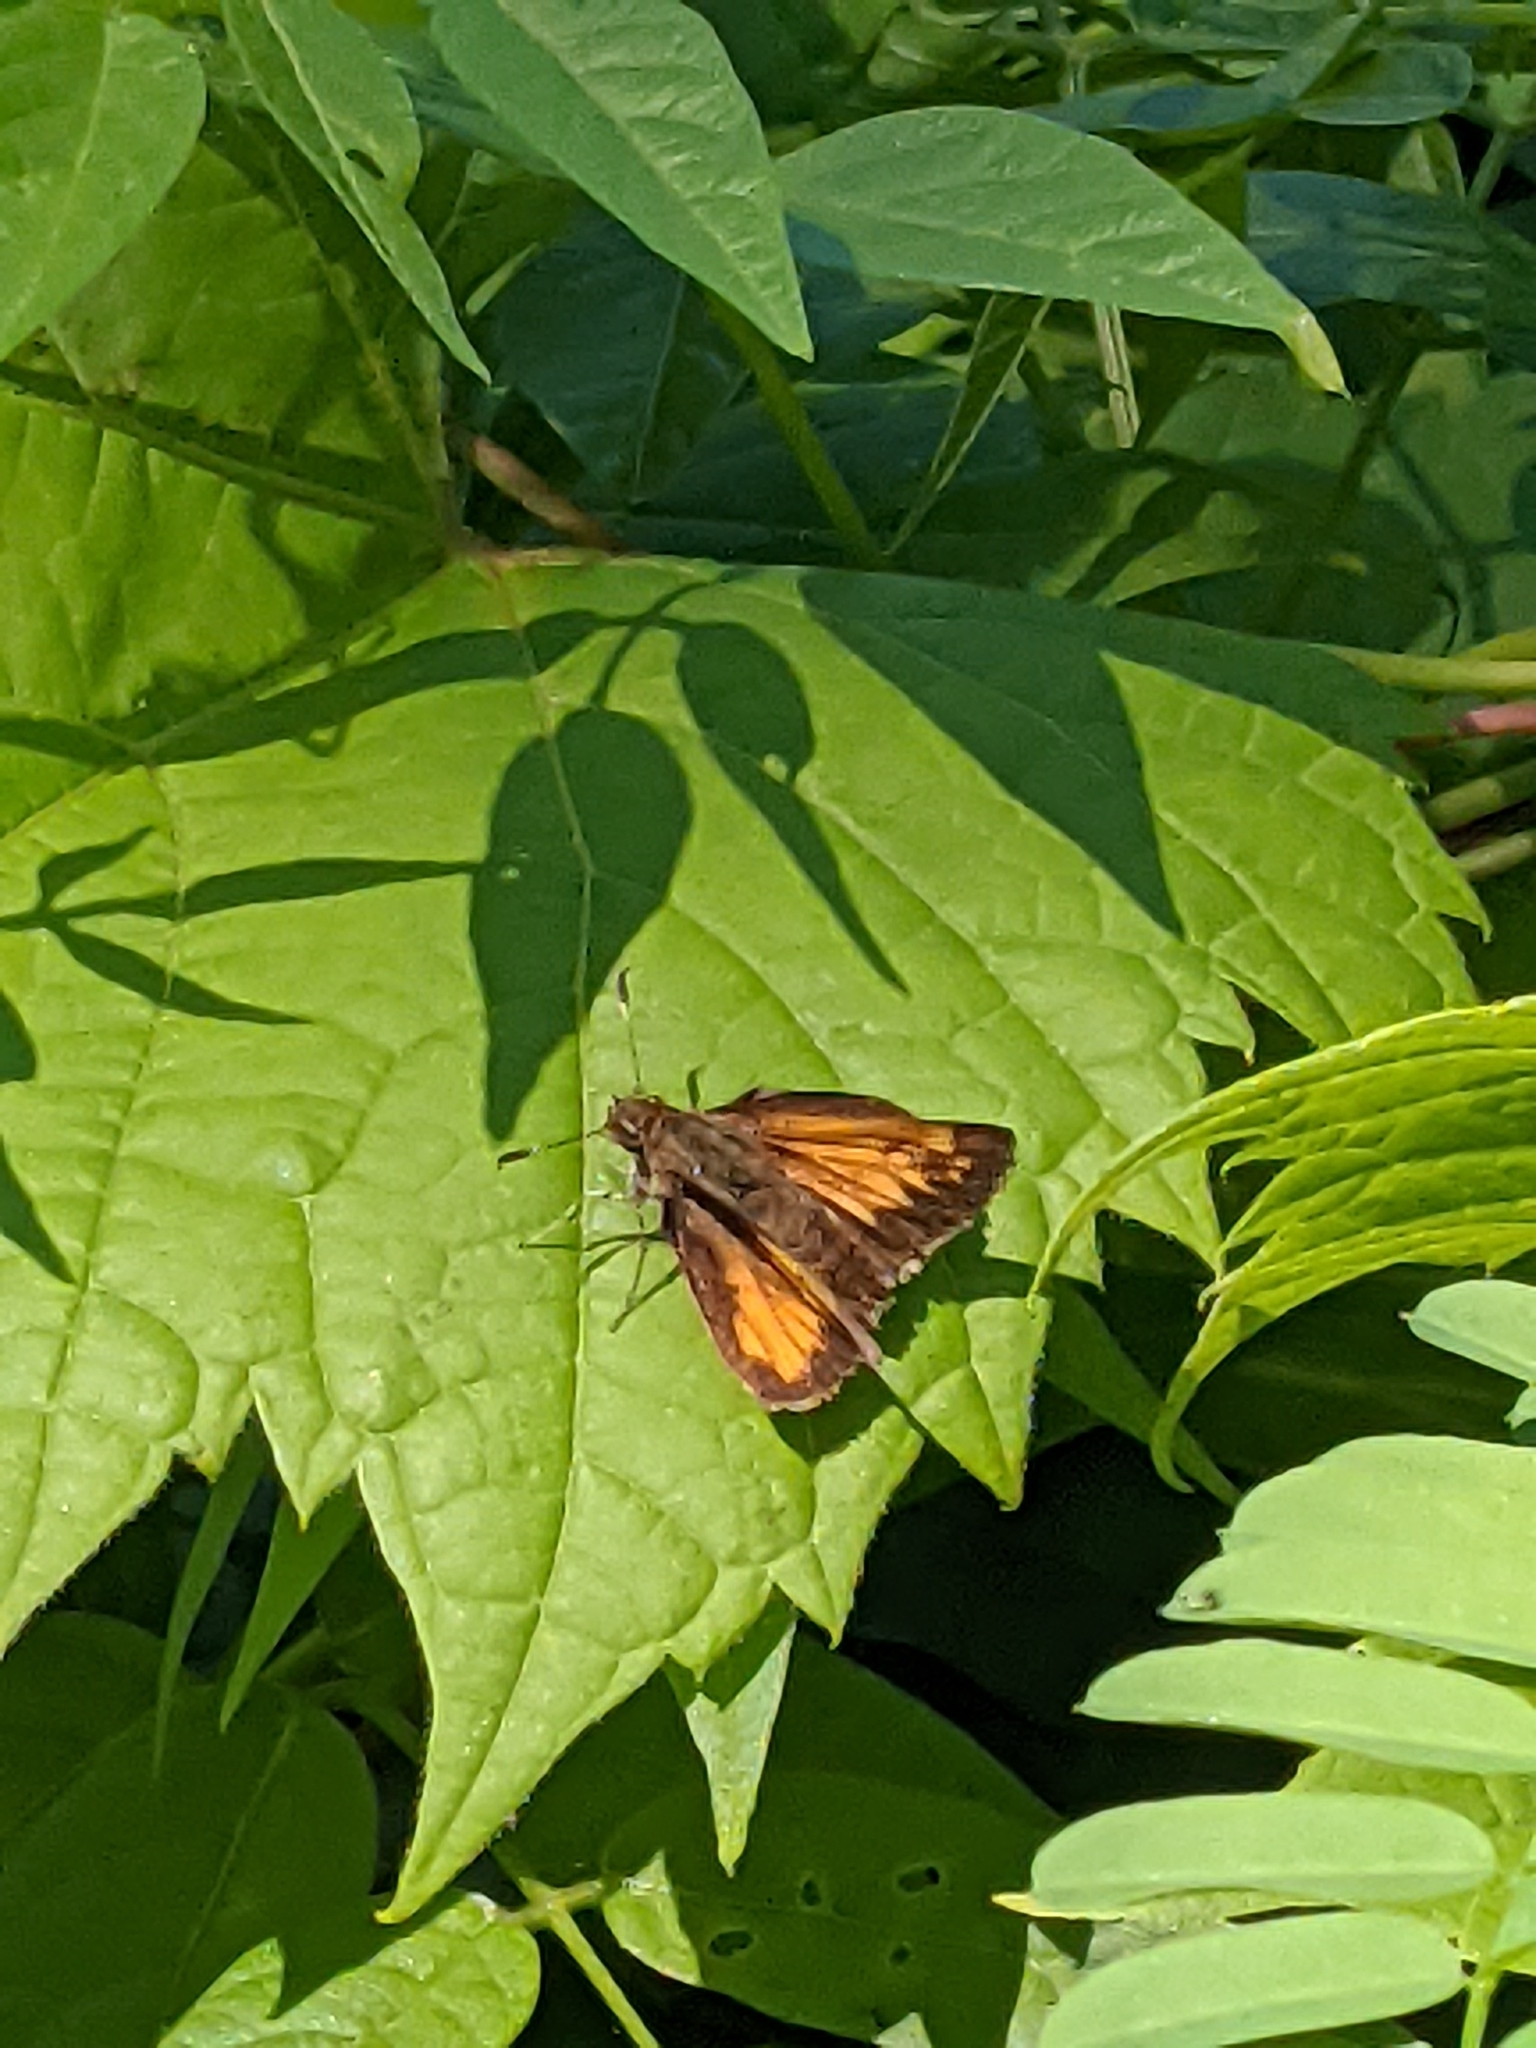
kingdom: Animalia
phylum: Arthropoda
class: Insecta
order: Lepidoptera
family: Hesperiidae
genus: Lon
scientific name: Lon hobomok
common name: Hobomok skipper
